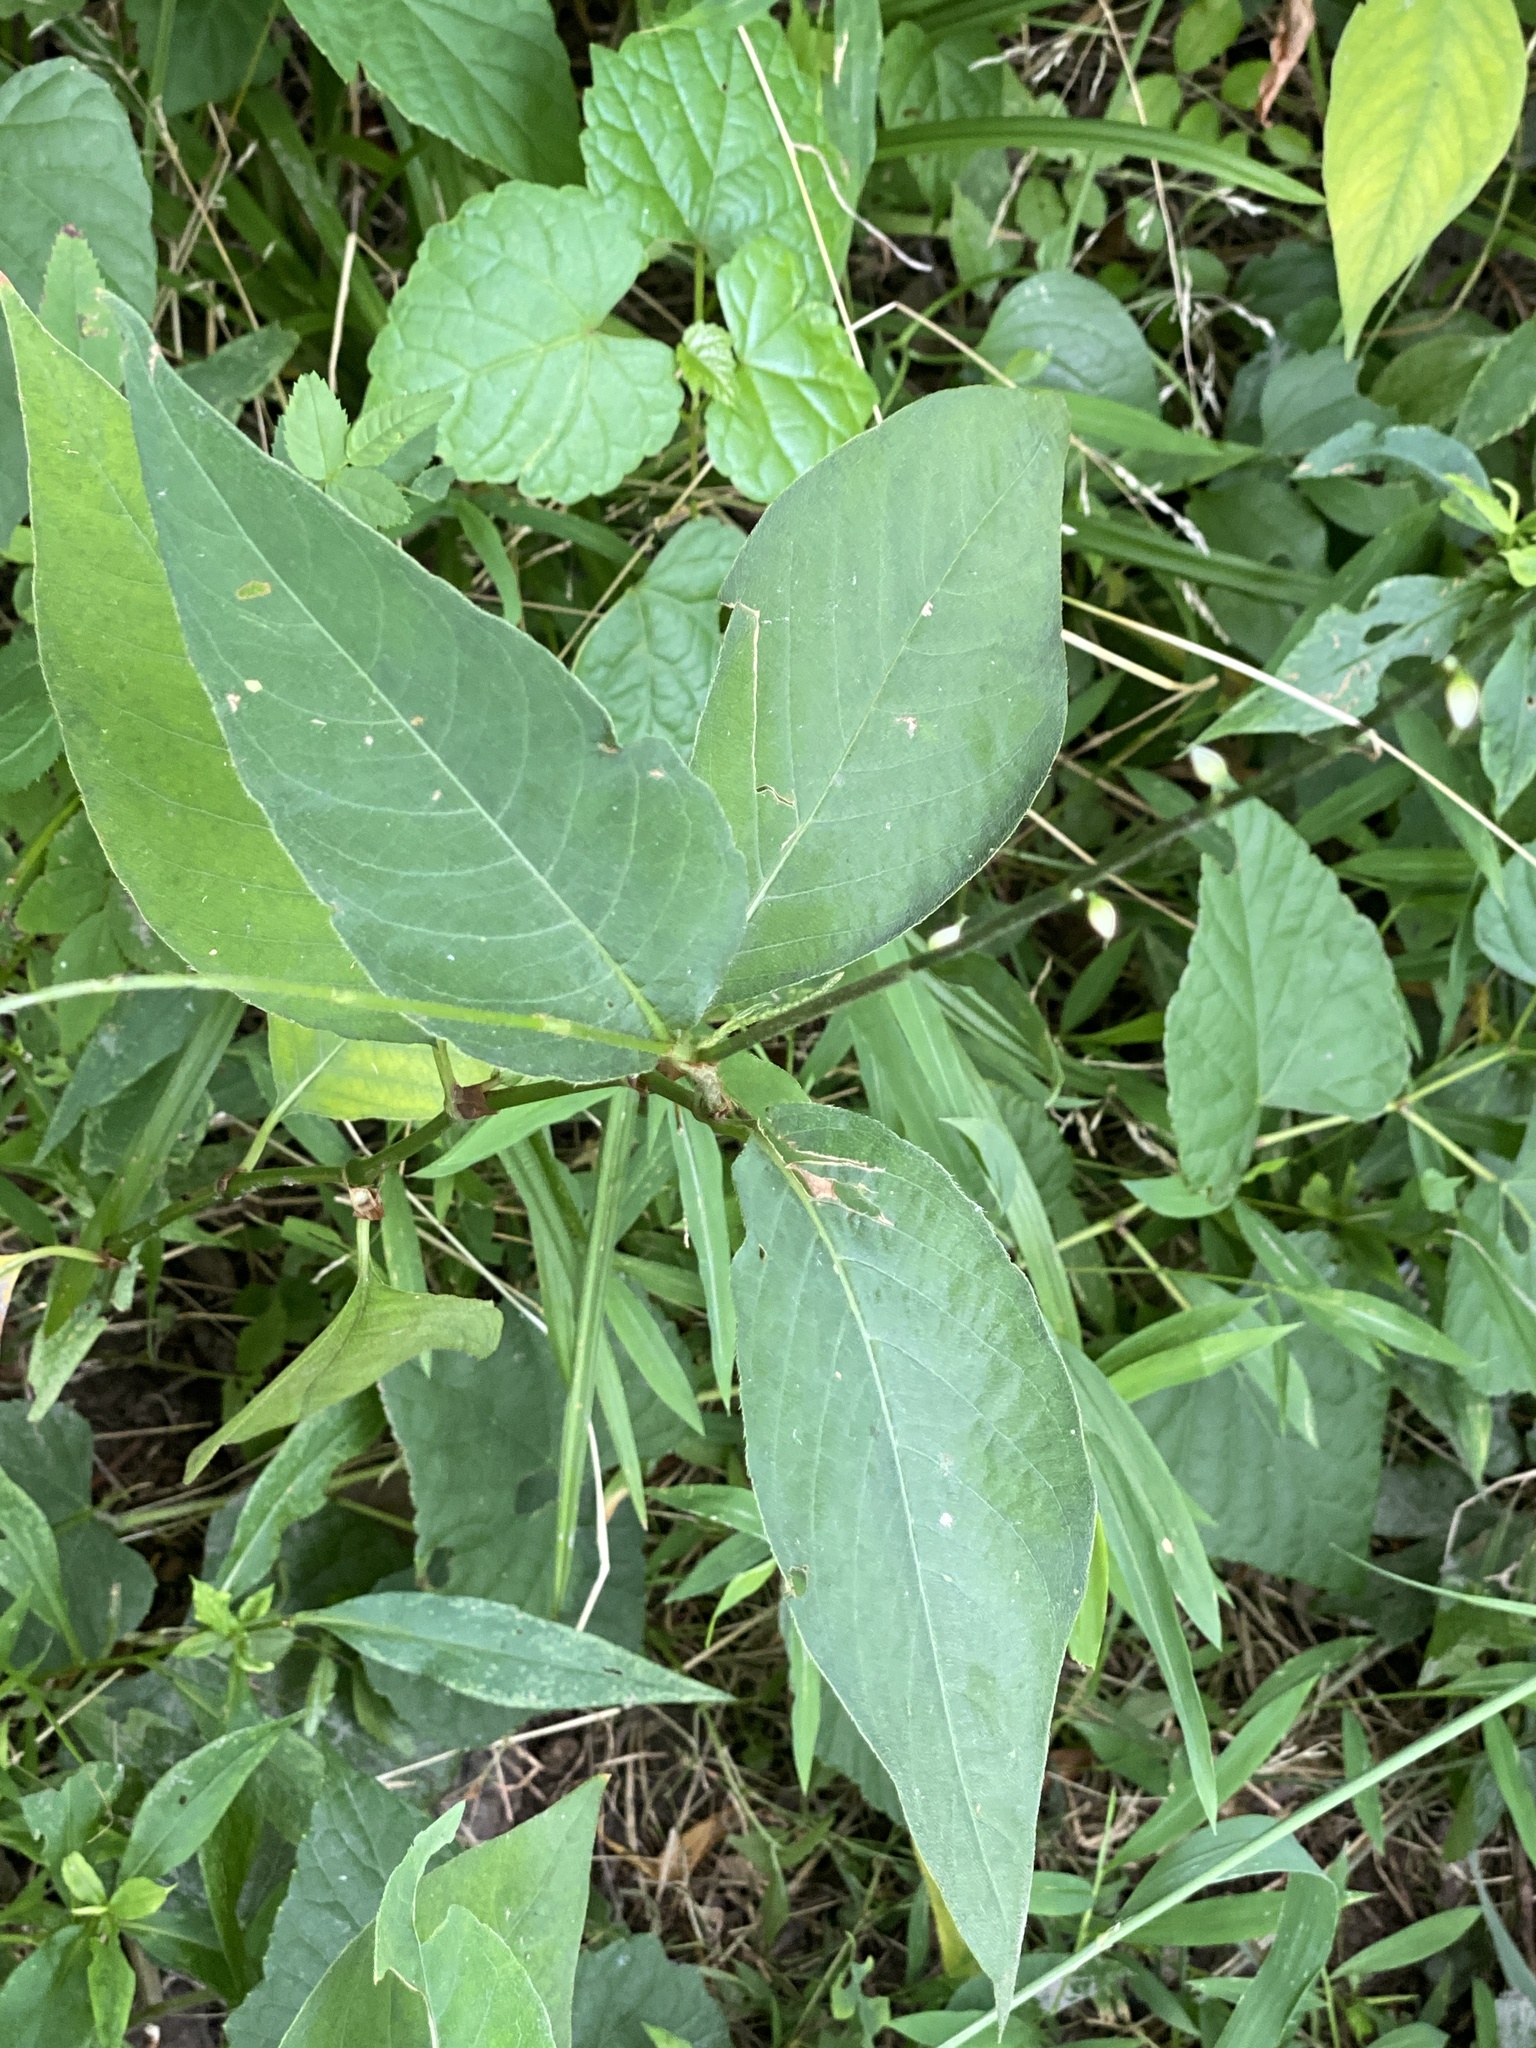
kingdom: Plantae
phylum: Tracheophyta
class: Magnoliopsida
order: Caryophyllales
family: Polygonaceae
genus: Persicaria
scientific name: Persicaria virginiana
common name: Jumpseed
